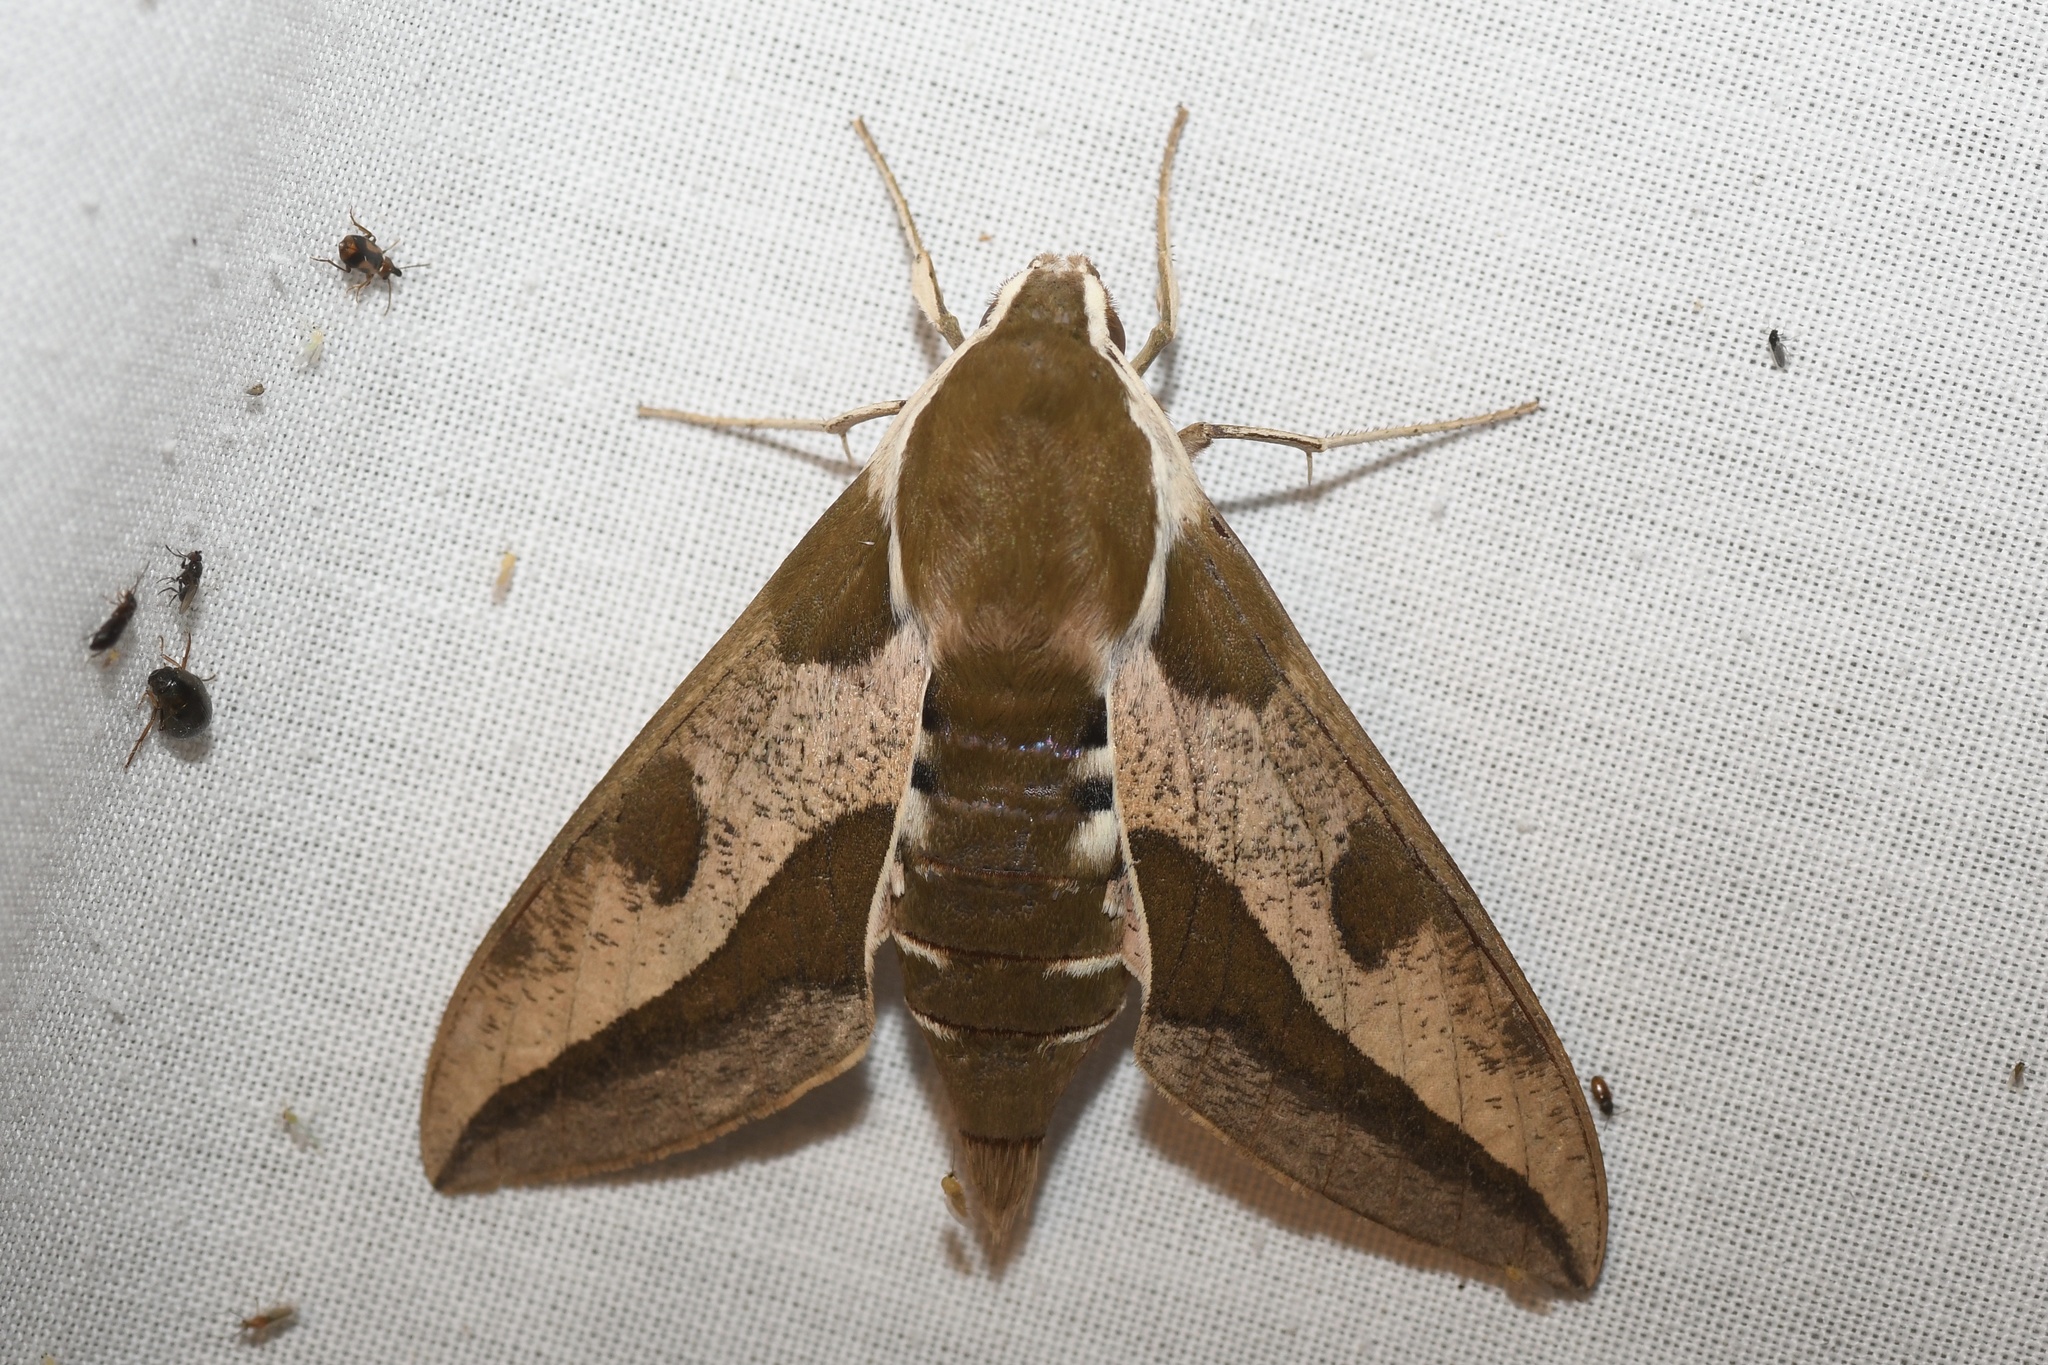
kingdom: Animalia
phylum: Arthropoda
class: Insecta
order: Lepidoptera
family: Sphingidae
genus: Hyles
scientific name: Hyles euphorbiae
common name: Spurge hawk-moth
